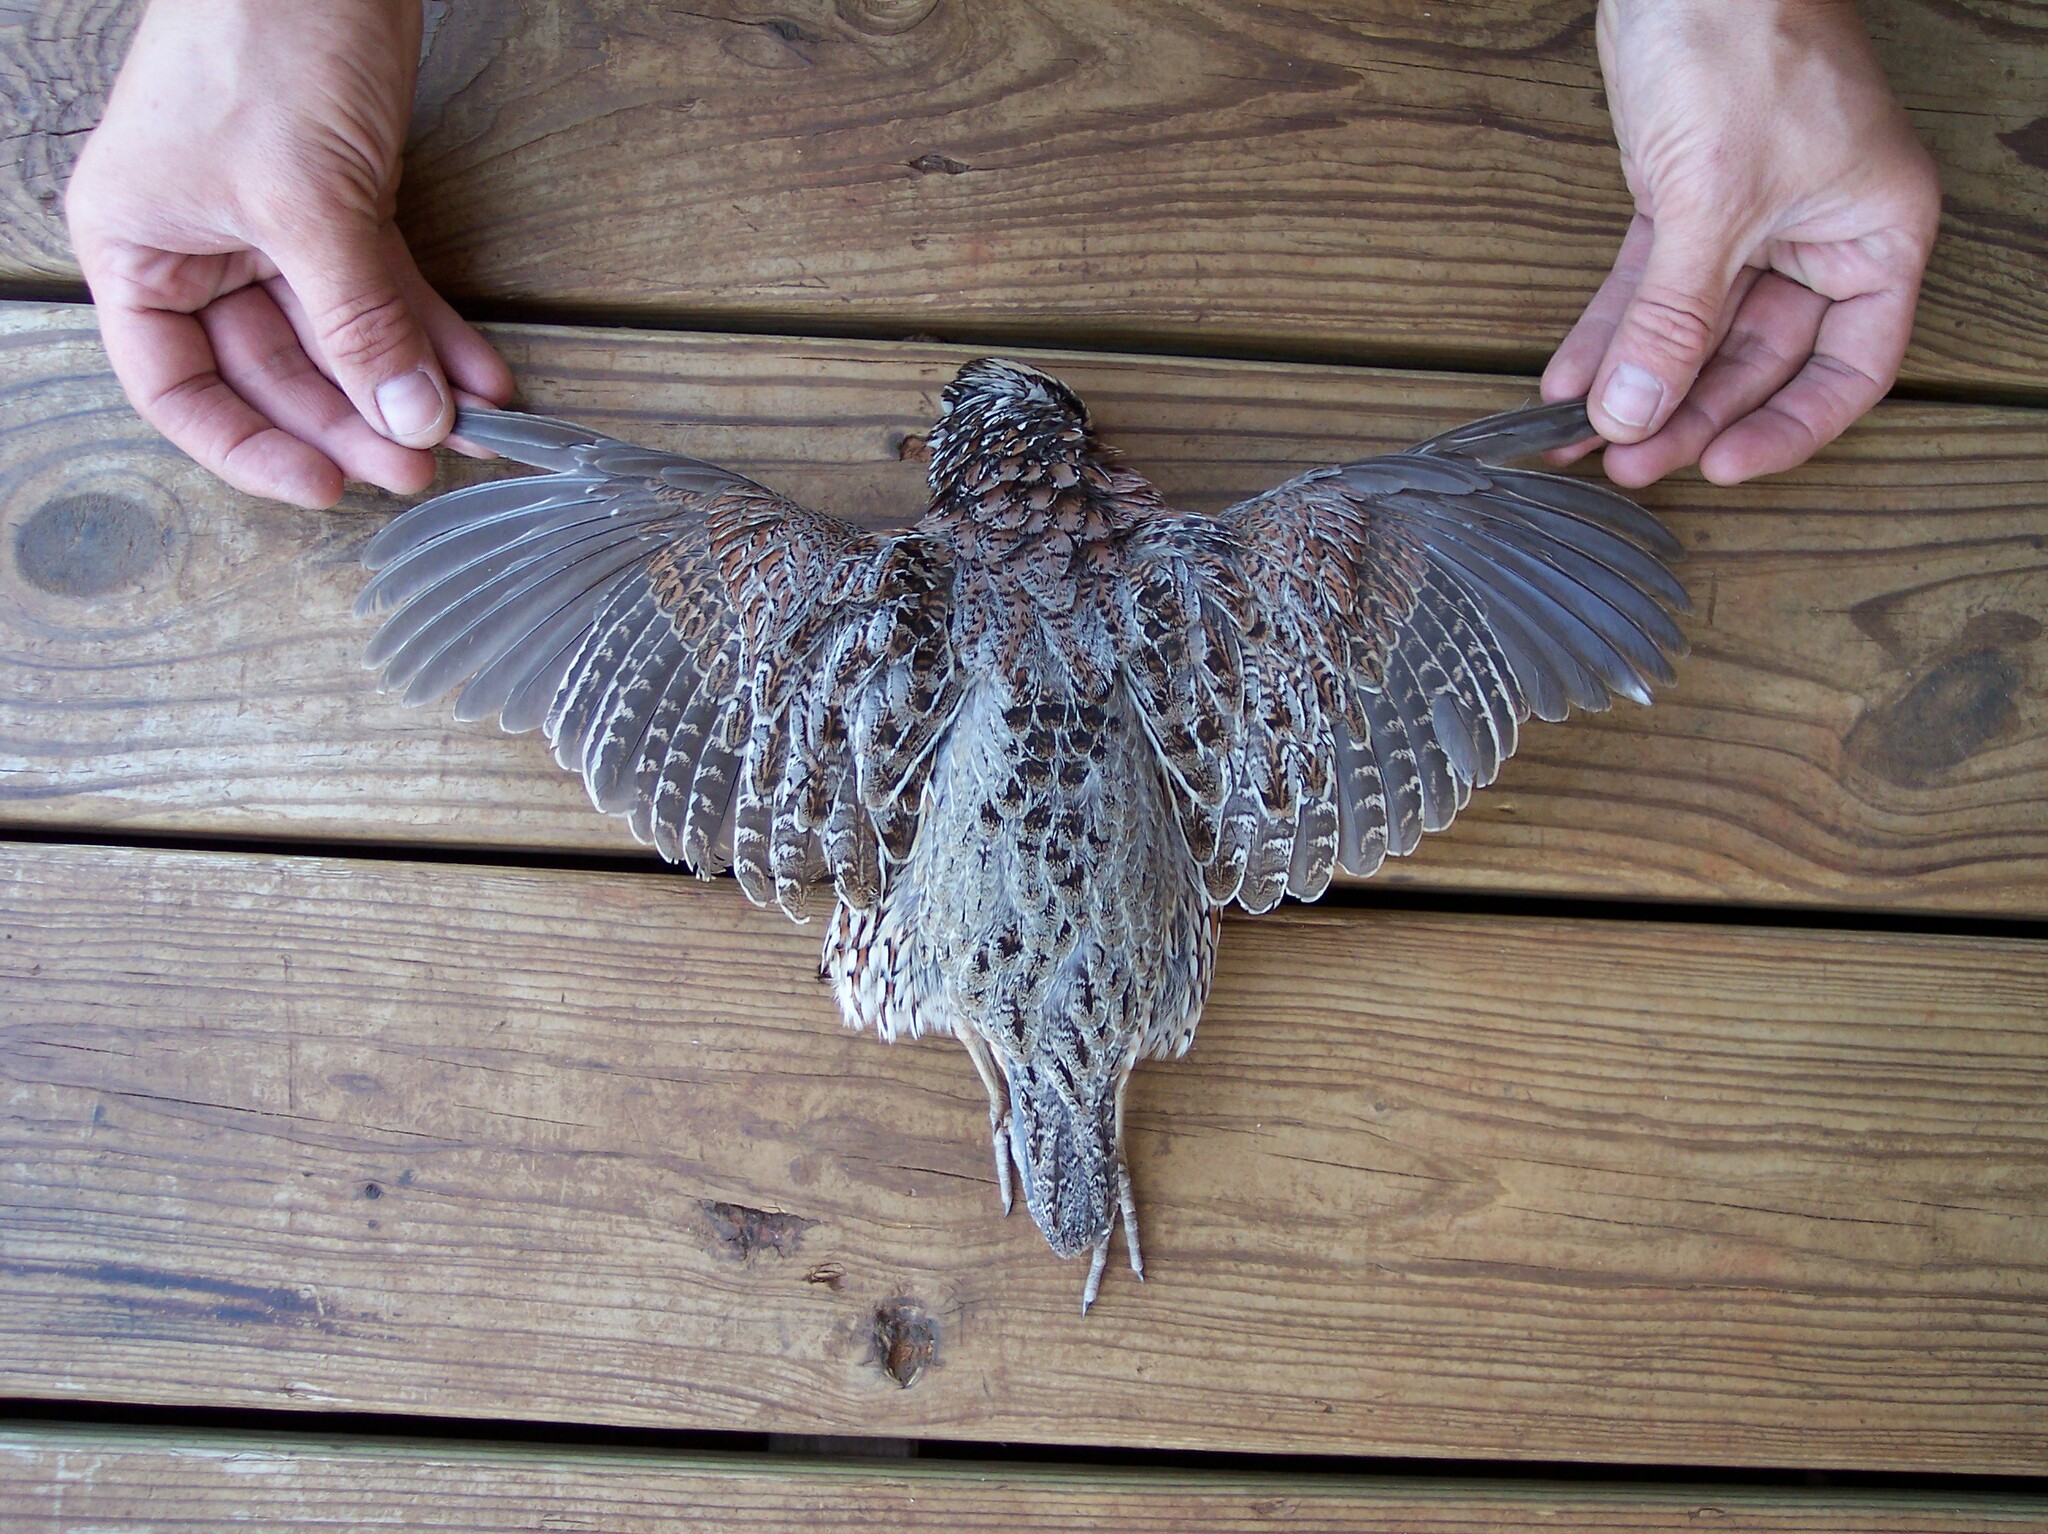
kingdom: Animalia
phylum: Chordata
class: Aves
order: Galliformes
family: Odontophoridae
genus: Colinus
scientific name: Colinus virginianus
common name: Northern bobwhite
